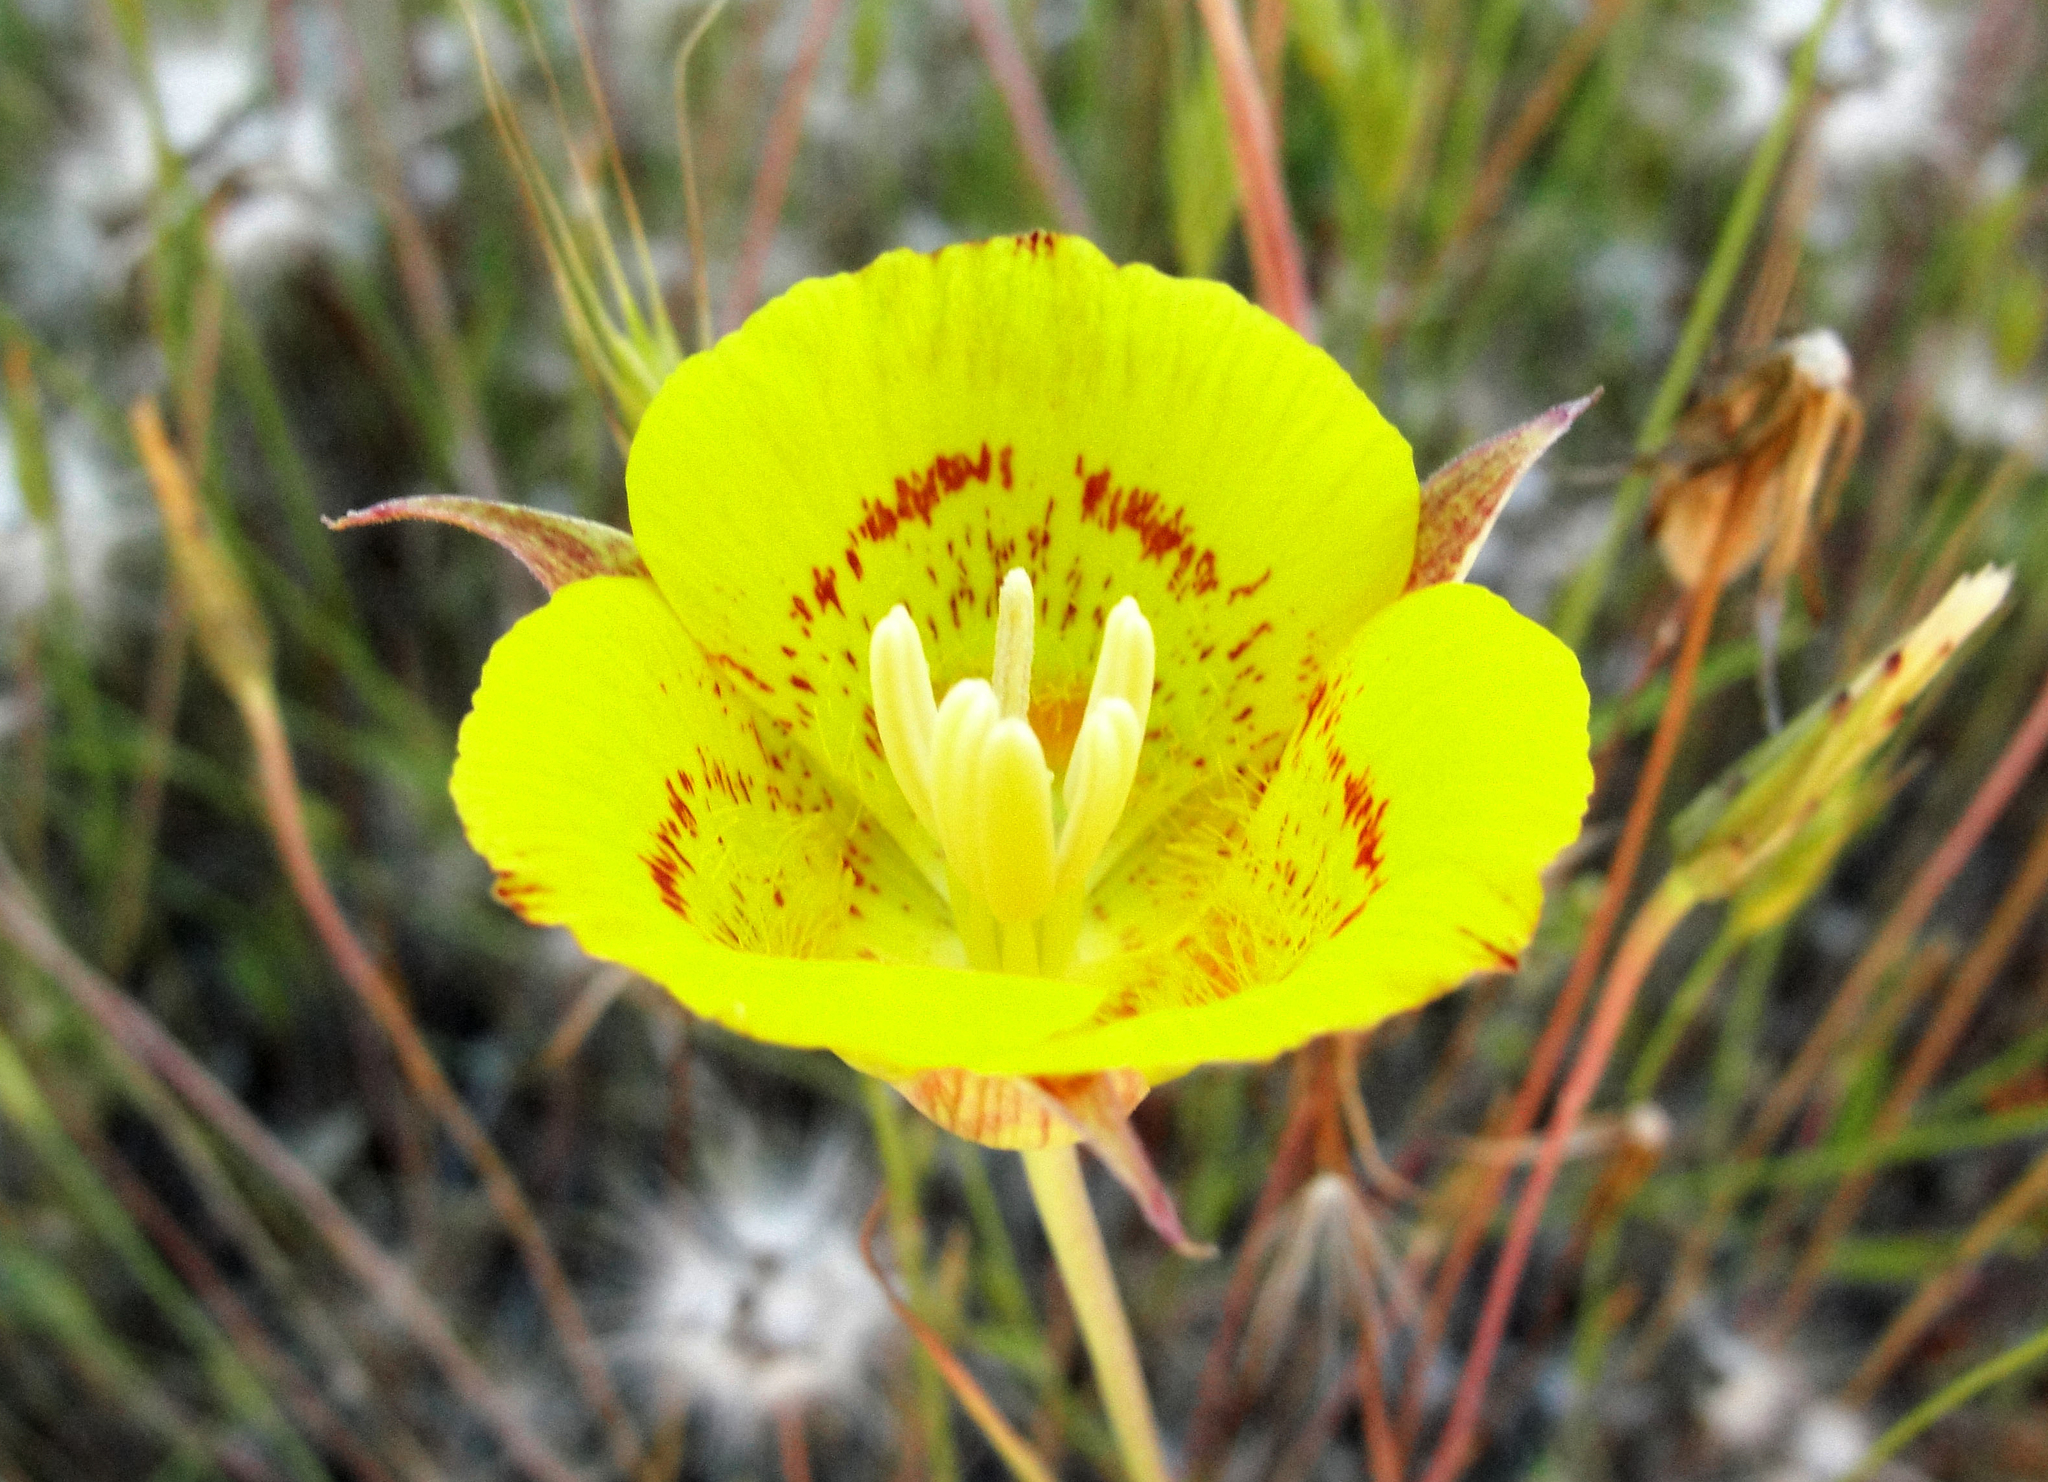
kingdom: Plantae
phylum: Tracheophyta
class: Liliopsida
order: Liliales
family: Liliaceae
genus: Calochortus
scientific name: Calochortus luteus
